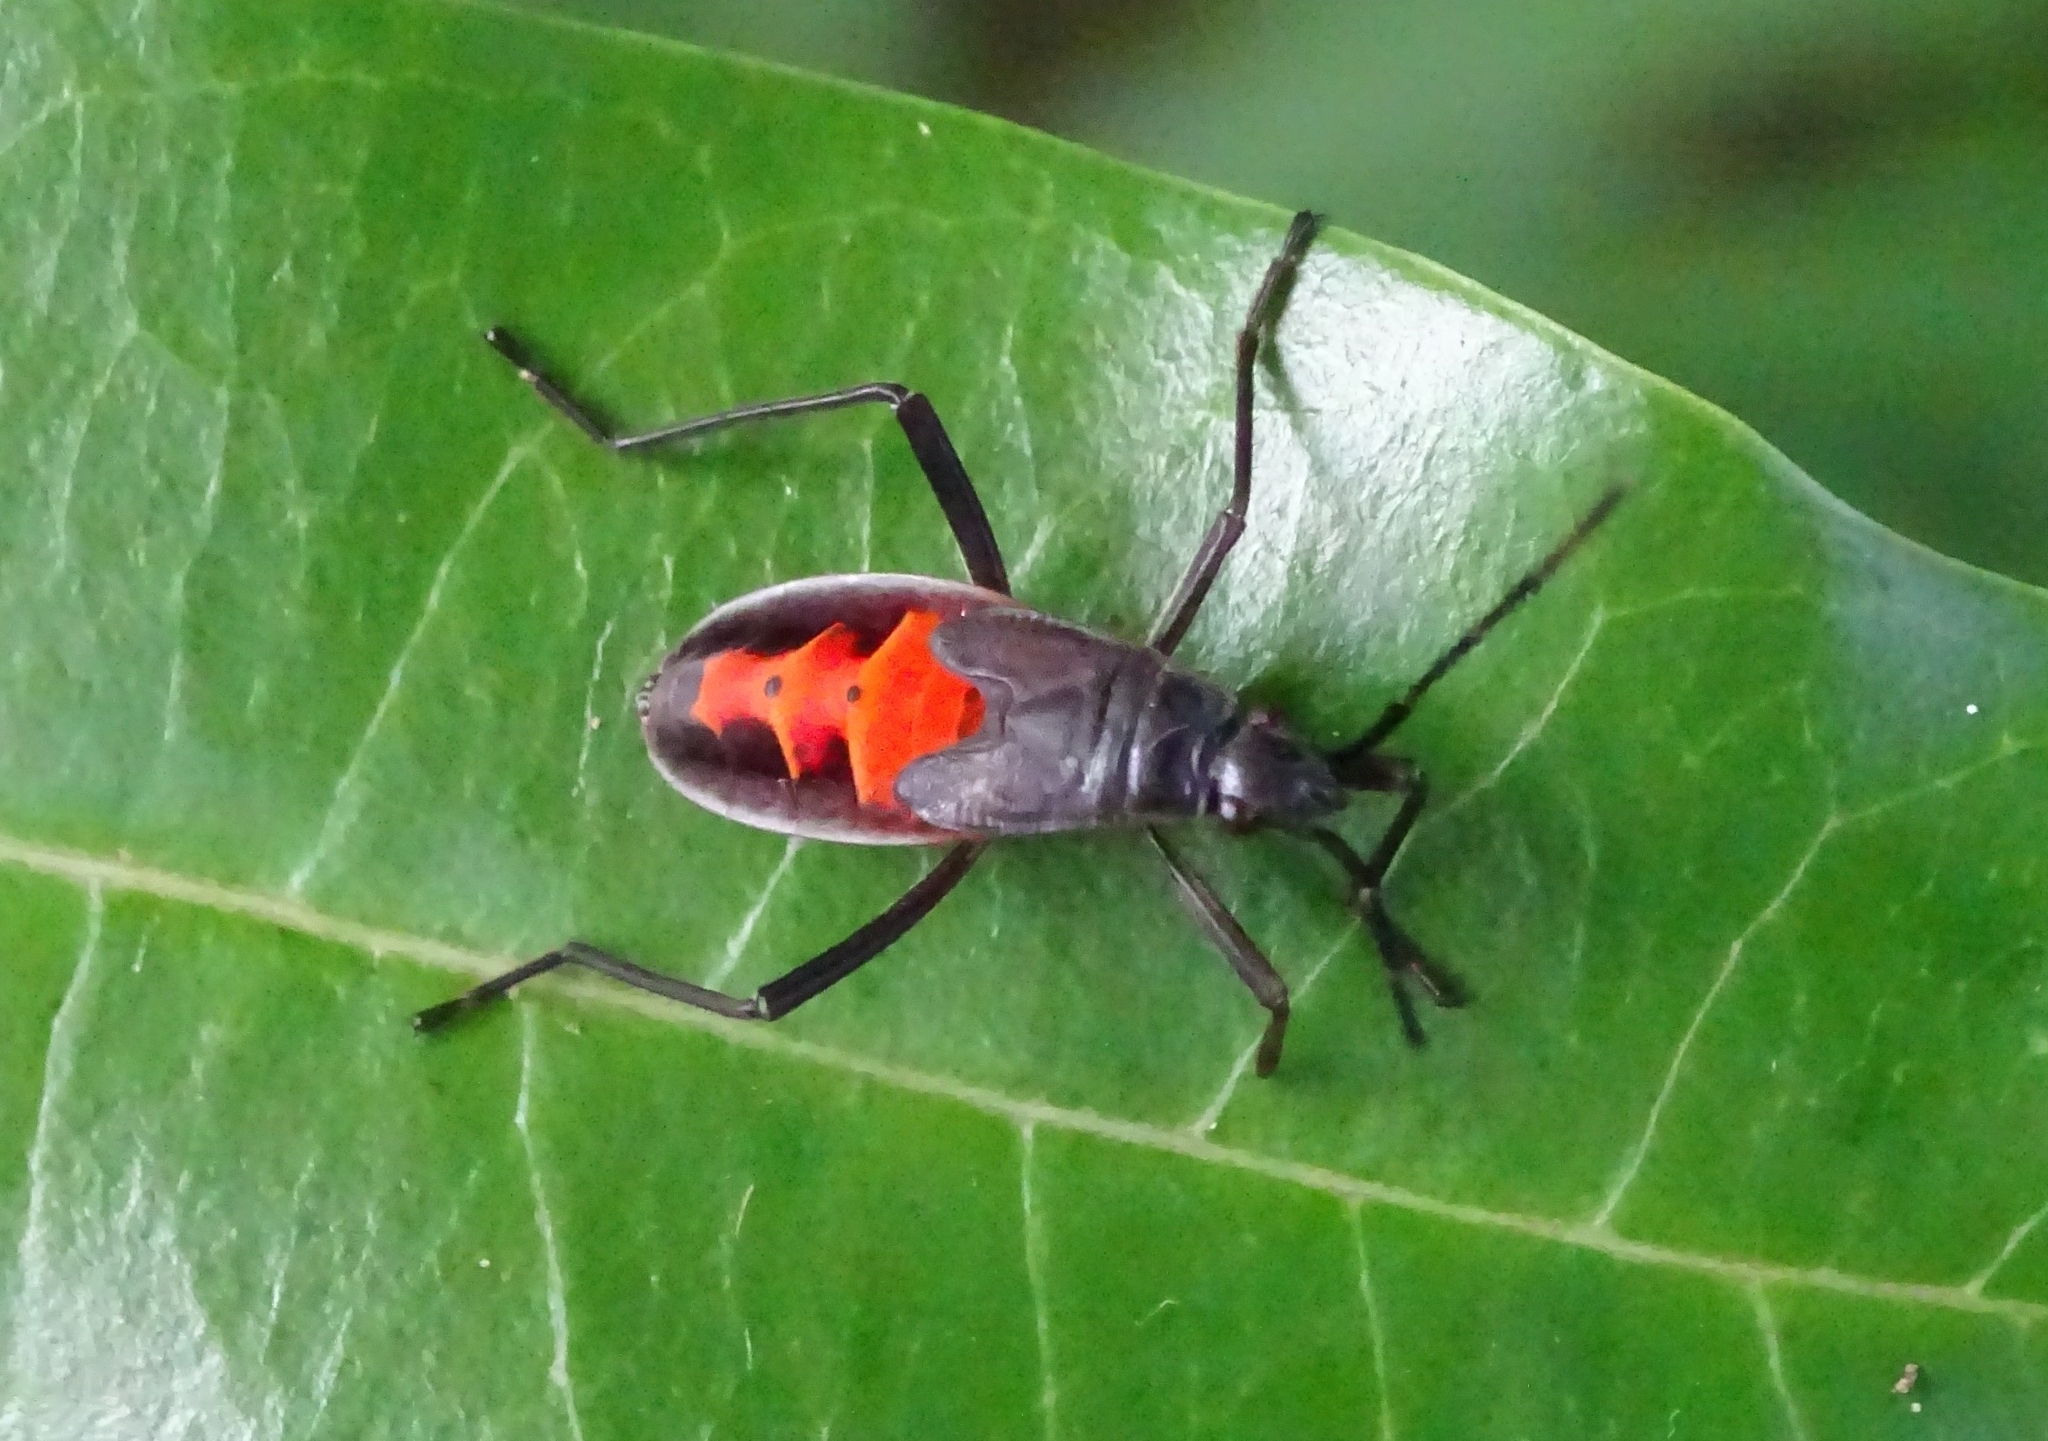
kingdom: Animalia
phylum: Arthropoda
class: Insecta
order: Hemiptera
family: Pyrrhocoridae
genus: Melamphaus
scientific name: Melamphaus
